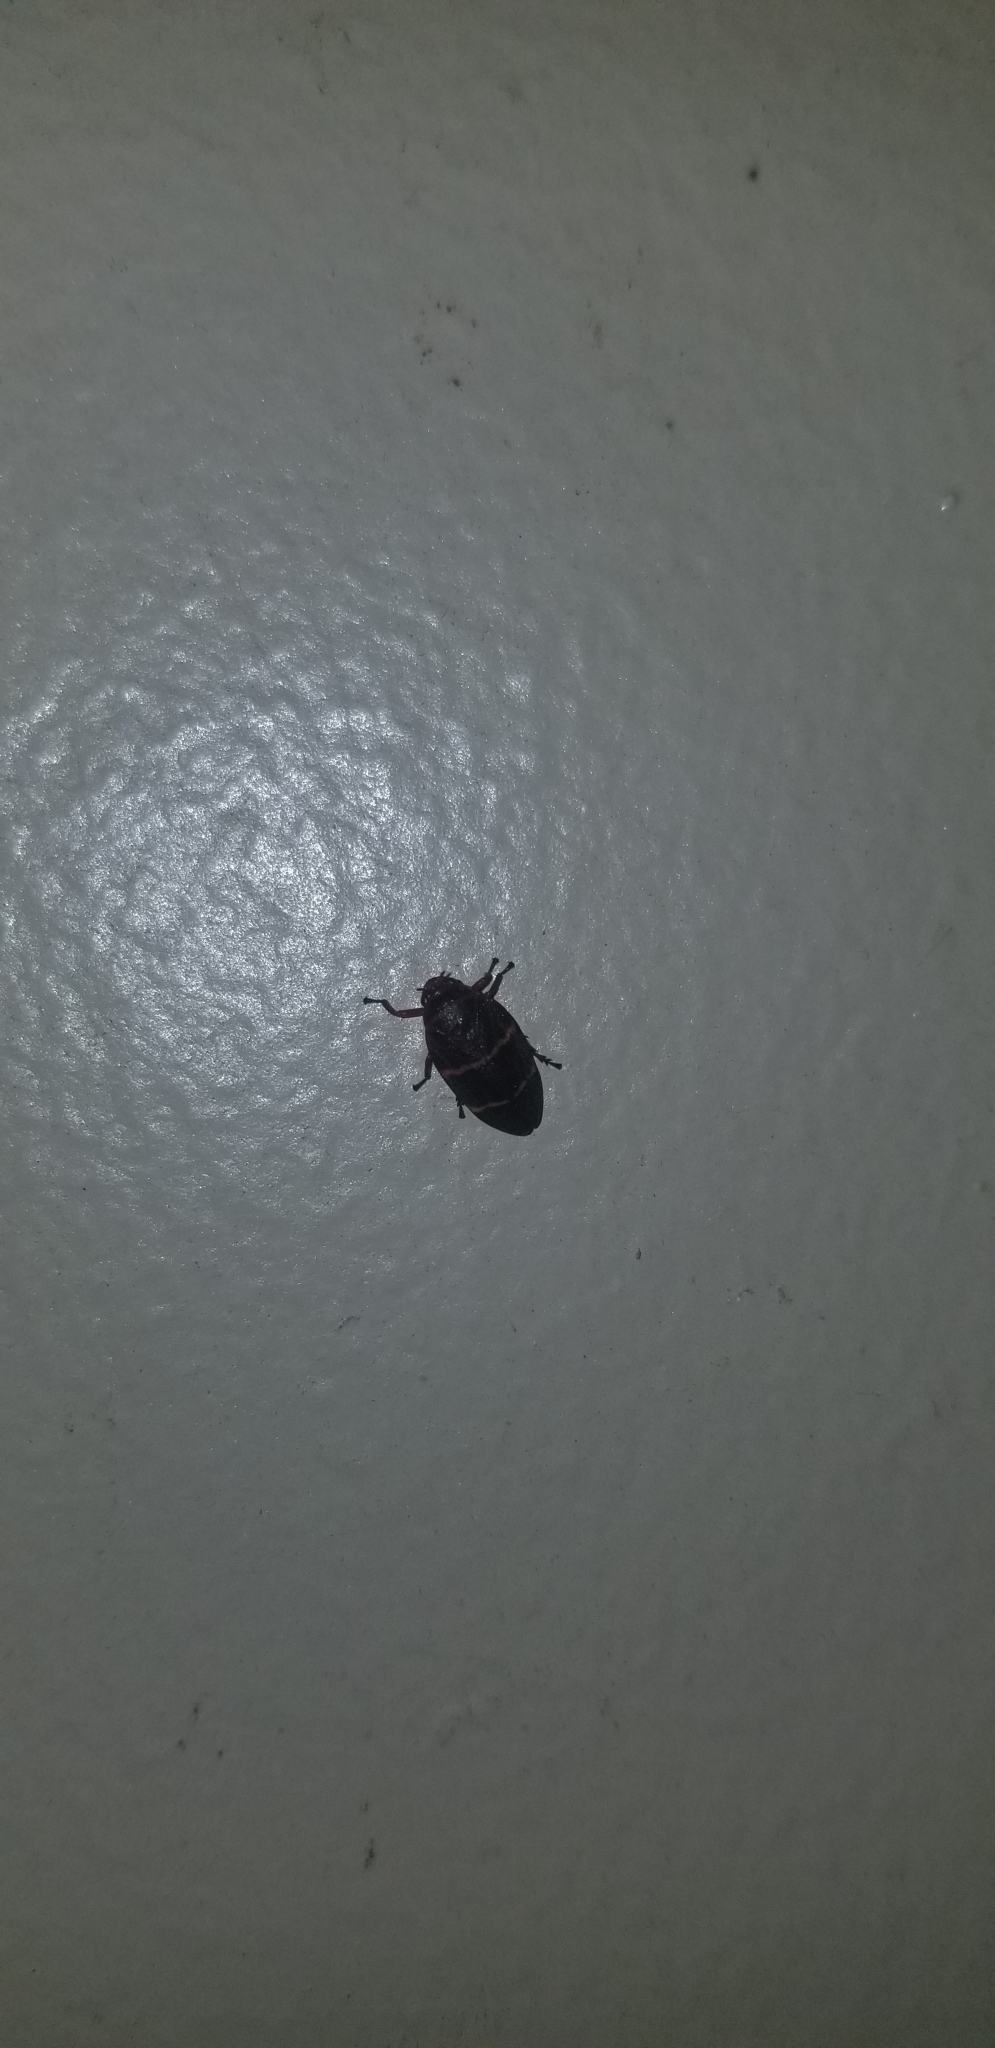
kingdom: Animalia
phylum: Arthropoda
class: Insecta
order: Hemiptera
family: Cercopidae
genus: Prosapia
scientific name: Prosapia bicincta
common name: Twolined spittlebug
